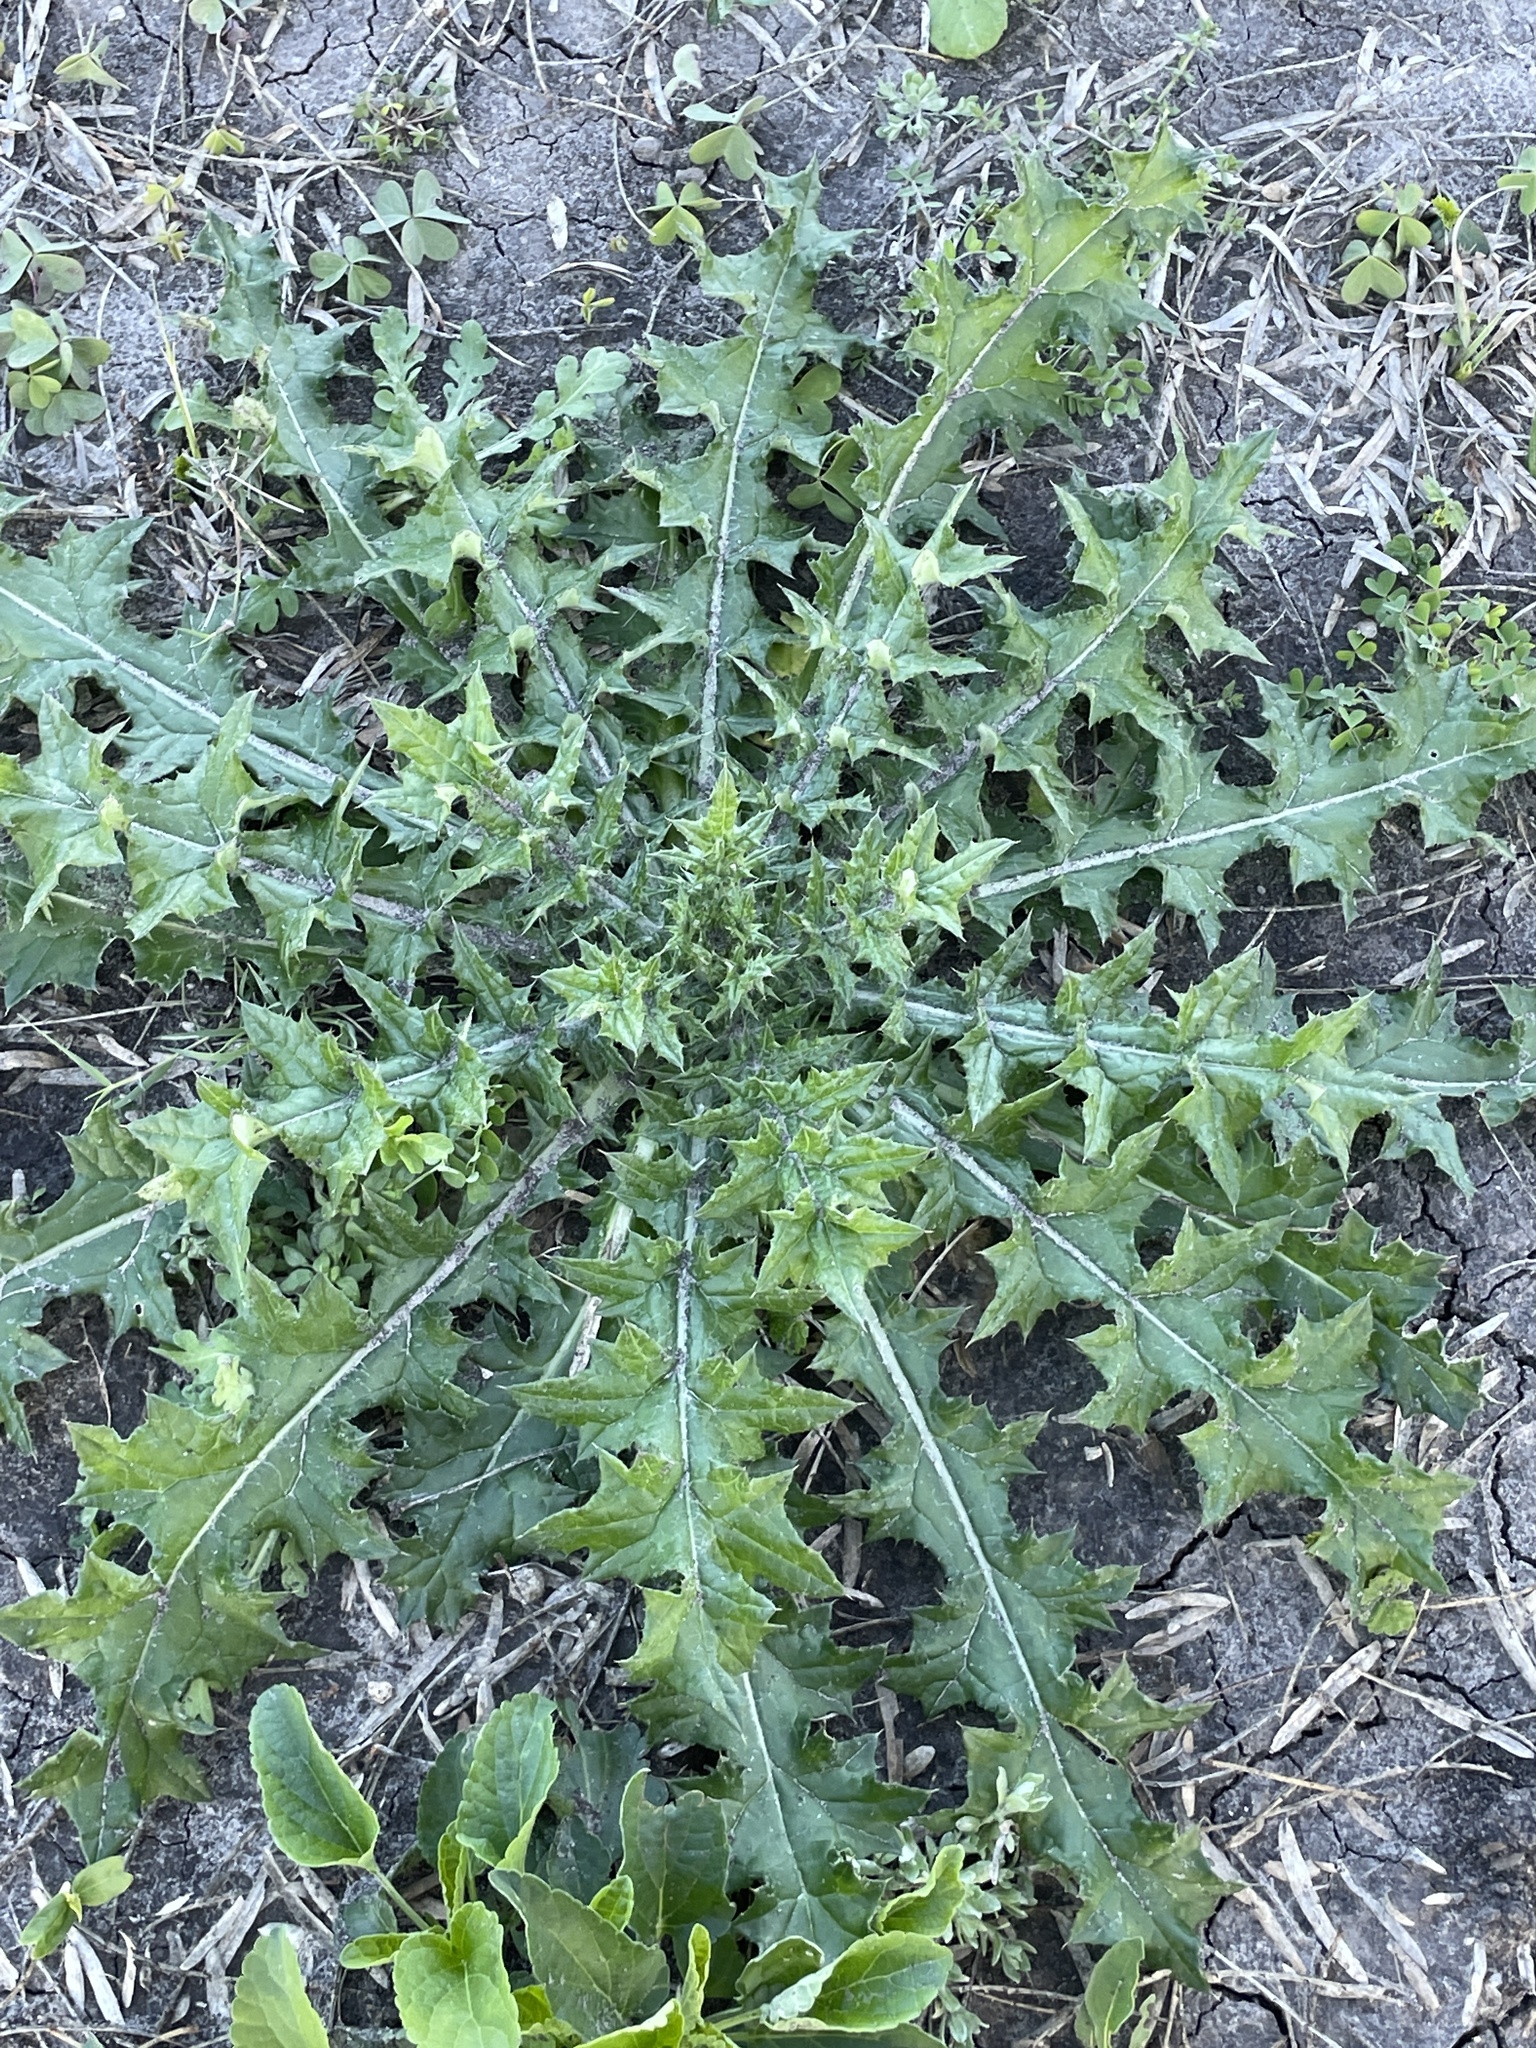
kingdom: Plantae
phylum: Tracheophyta
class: Magnoliopsida
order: Asterales
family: Asteraceae
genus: Cirsium
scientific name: Cirsium texanum
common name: Texas purple thistle
